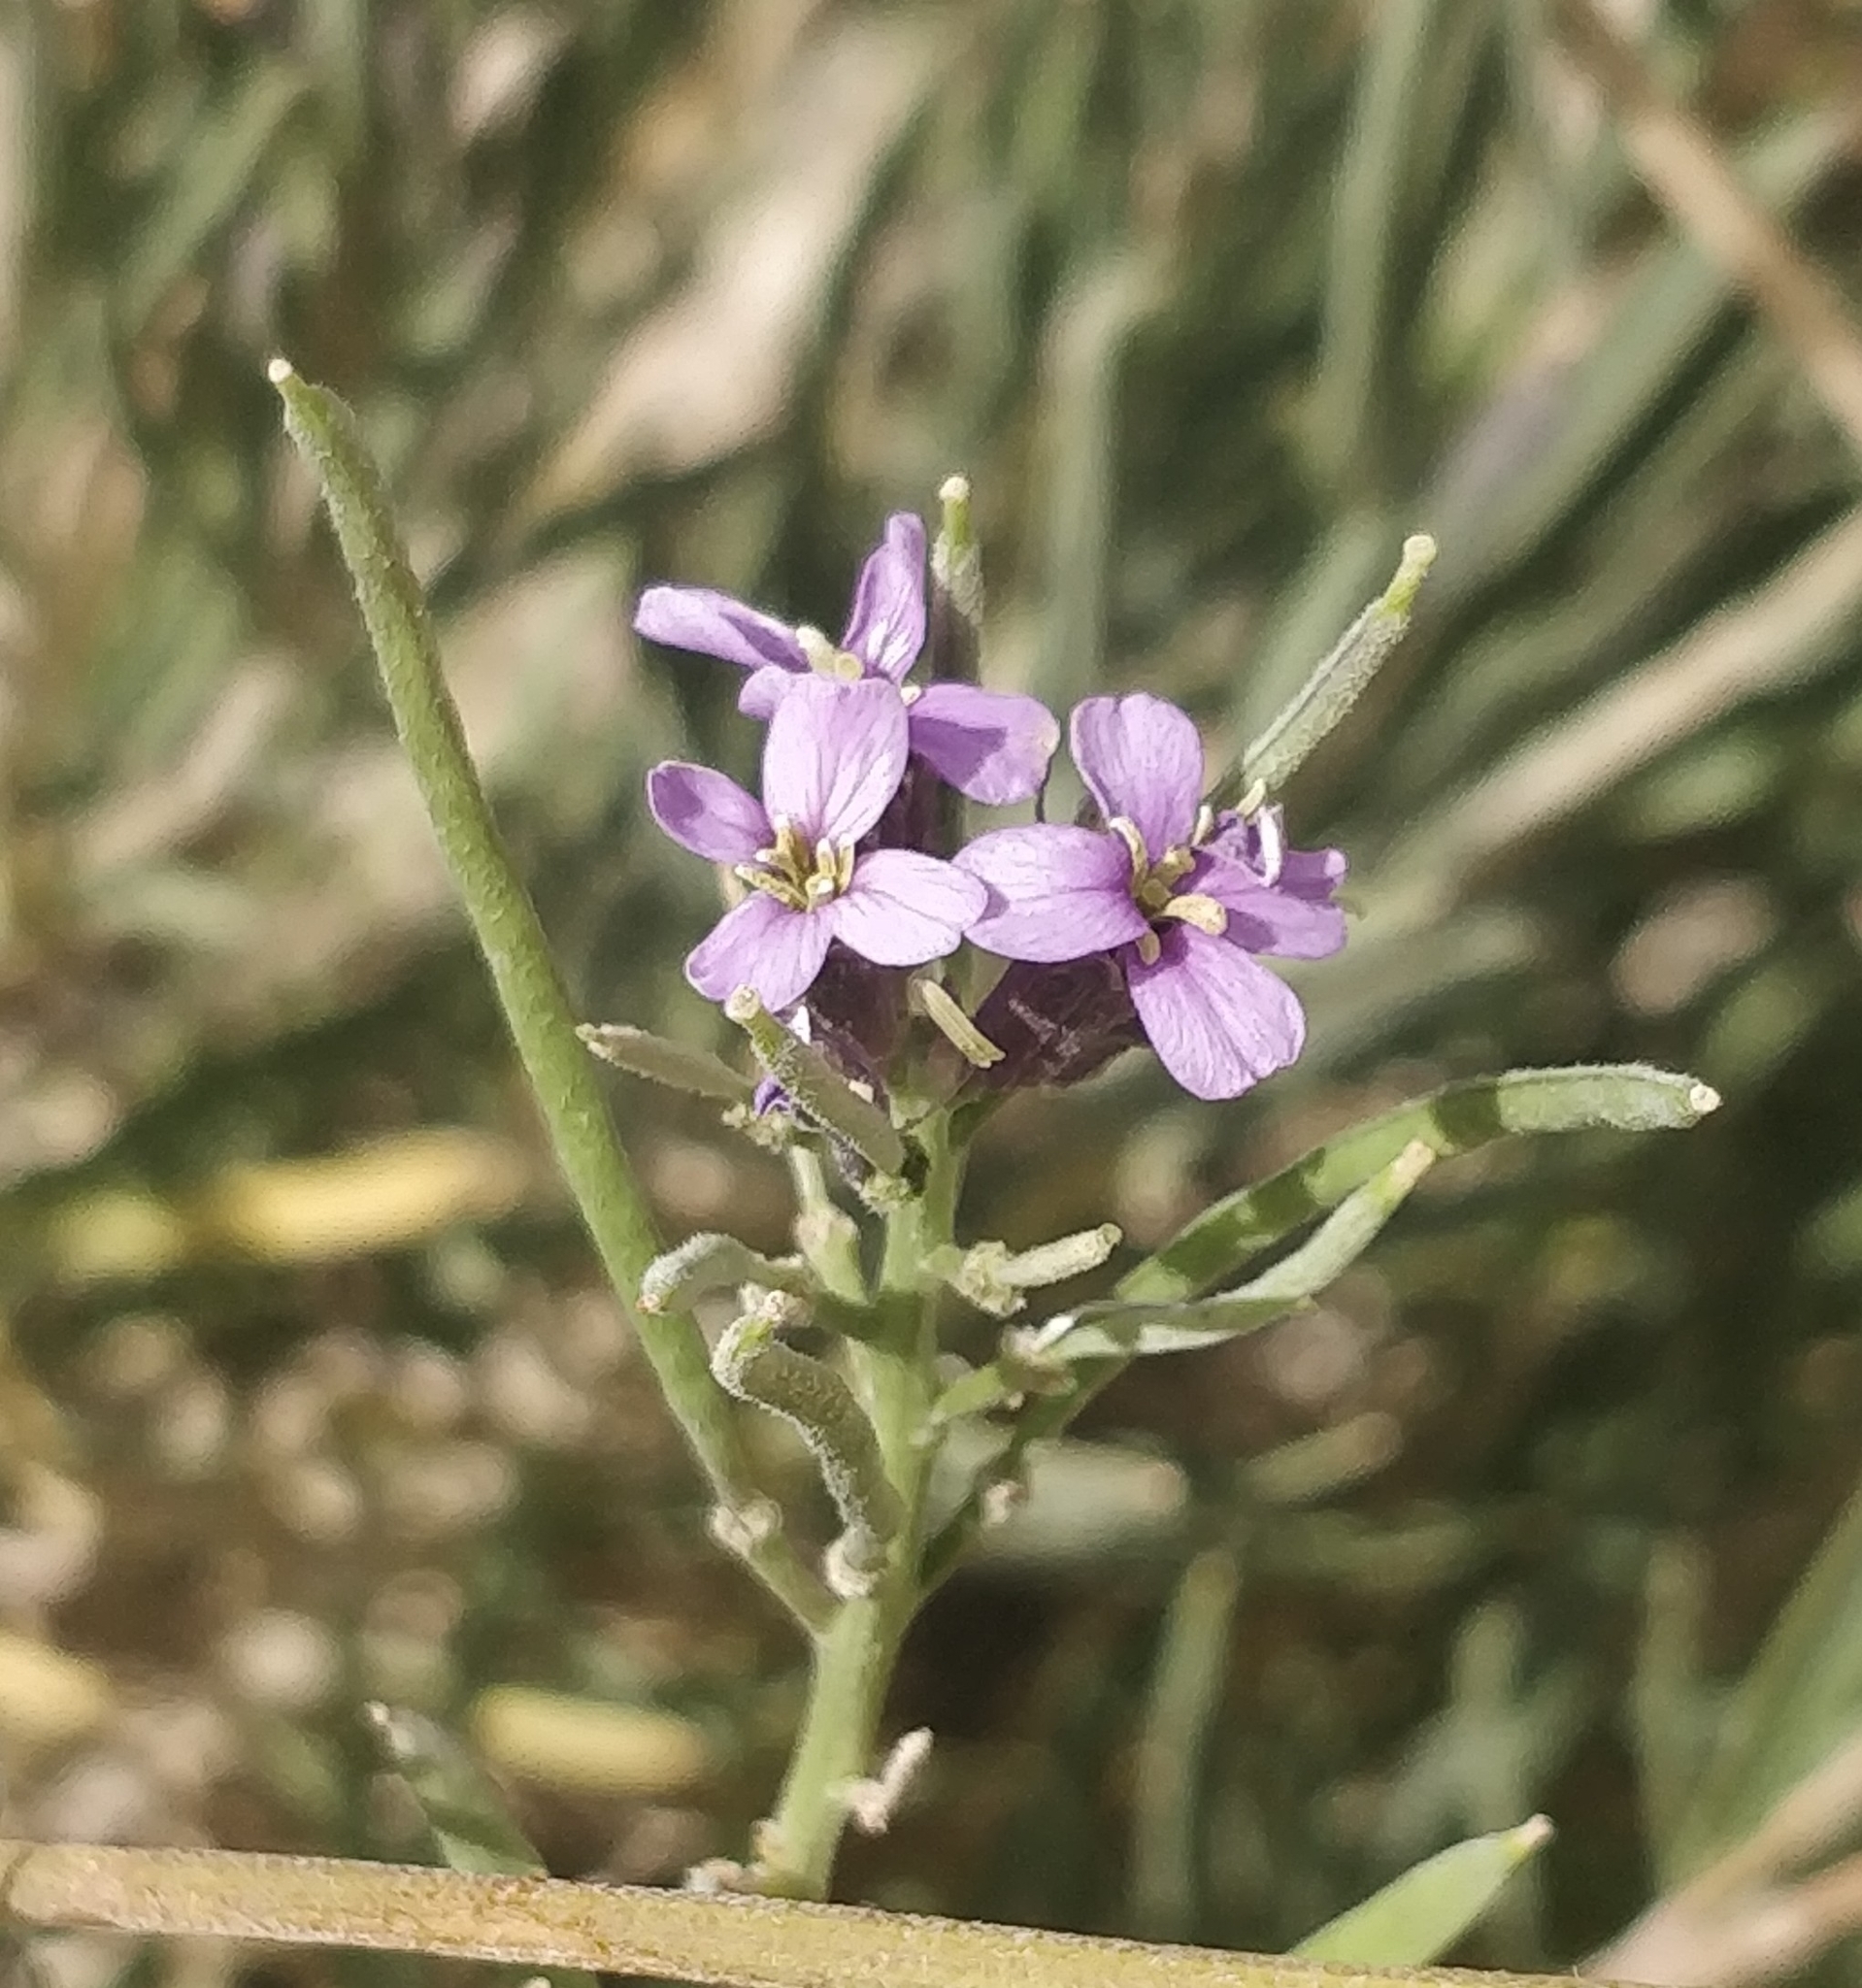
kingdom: Plantae
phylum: Tracheophyta
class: Magnoliopsida
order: Brassicales
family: Brassicaceae
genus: Erysimum
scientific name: Erysimum scoparium
